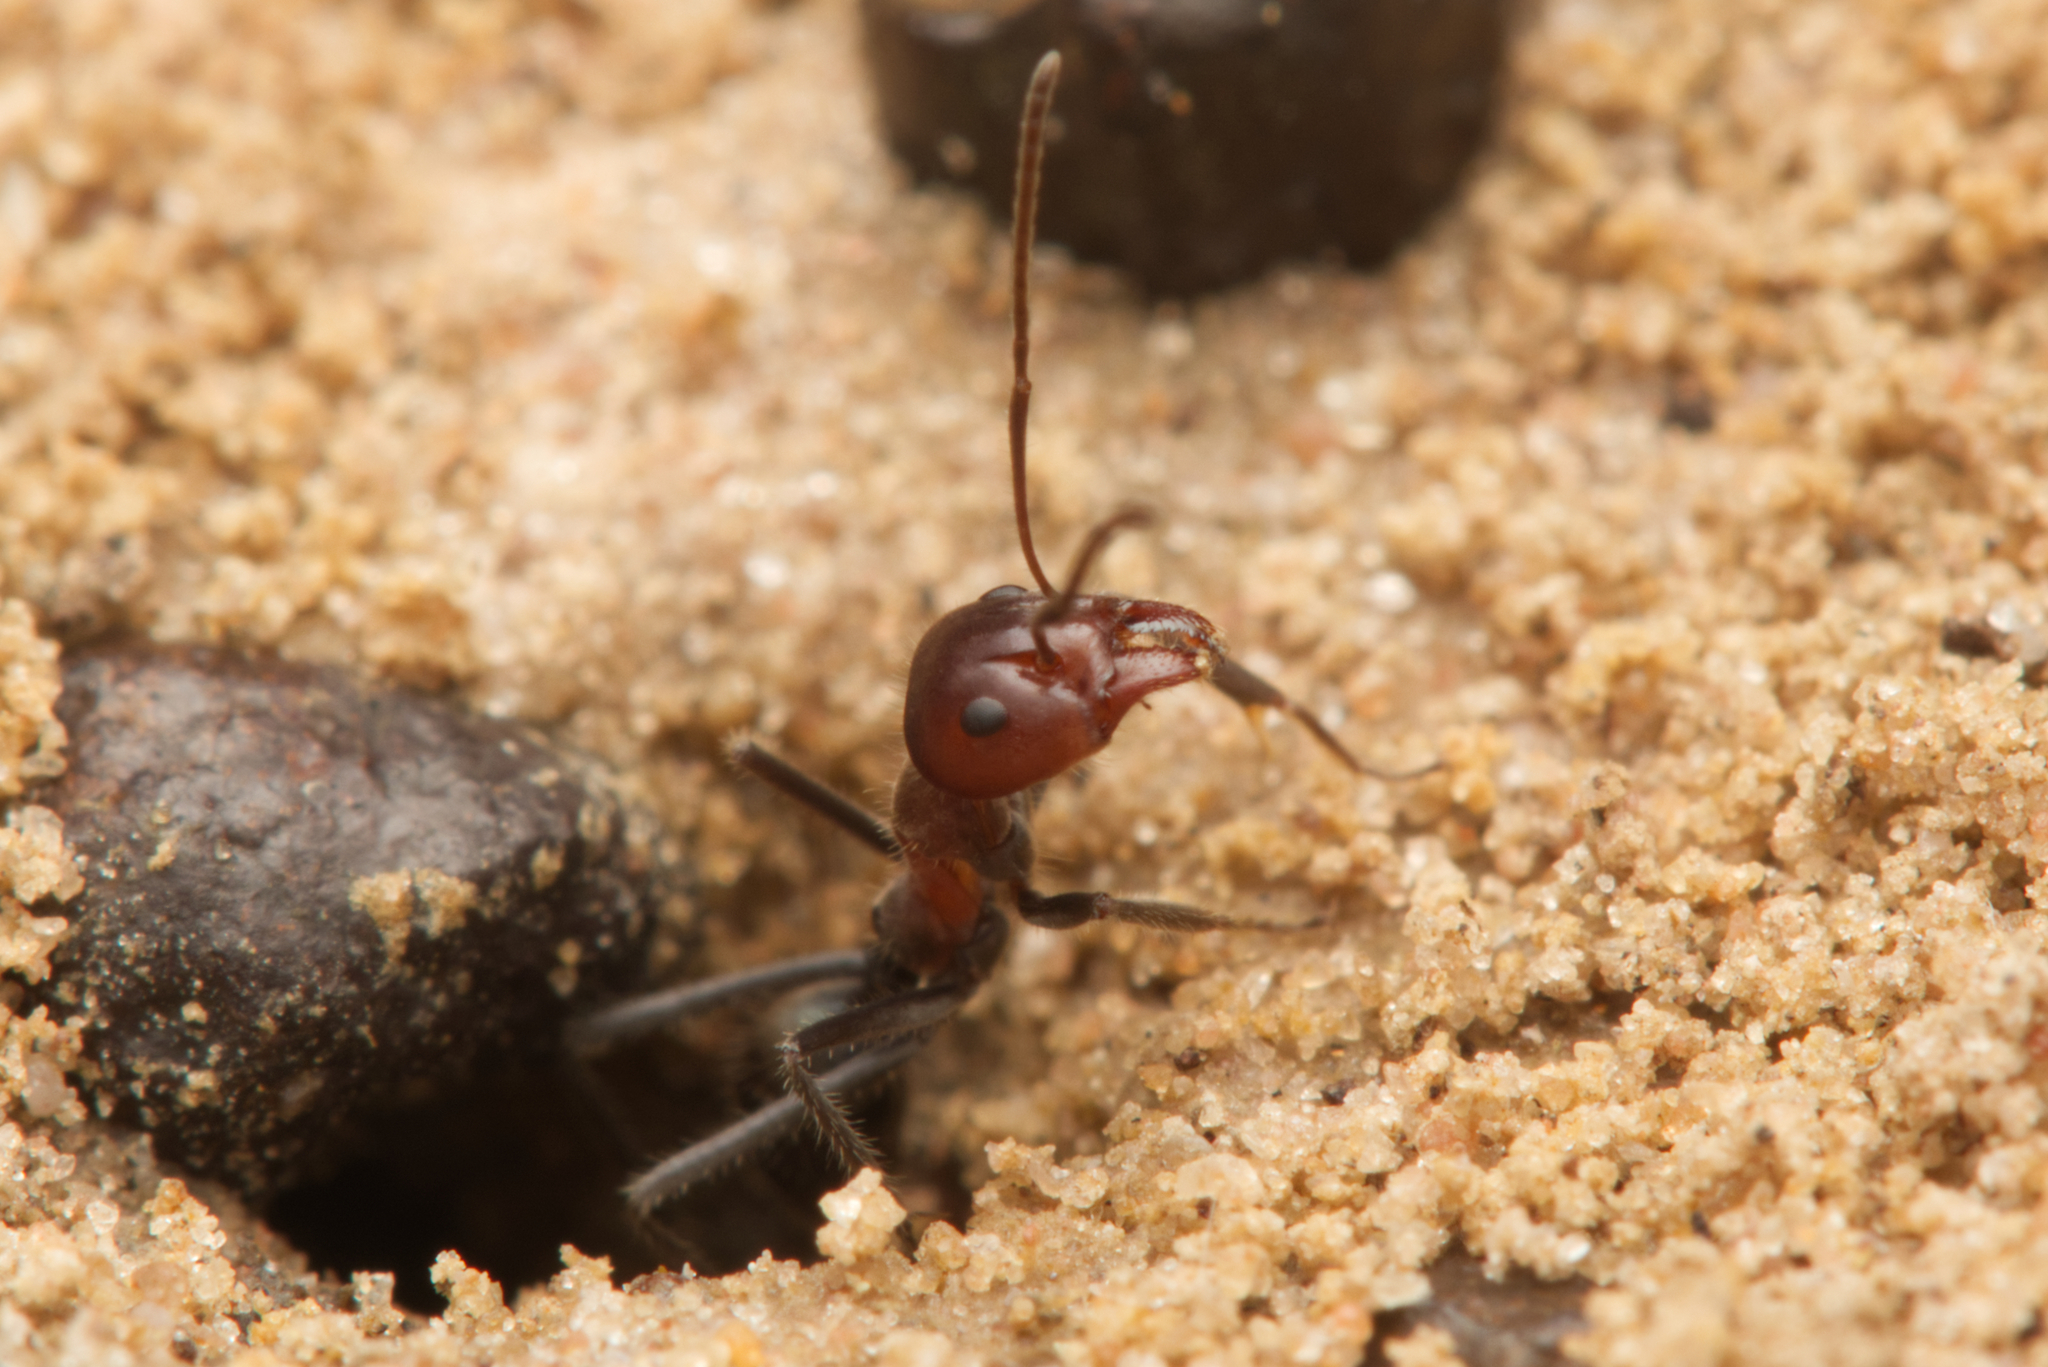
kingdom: Animalia
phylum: Arthropoda
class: Insecta
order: Hymenoptera
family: Formicidae
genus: Iridomyrmex
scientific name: Iridomyrmex discors
